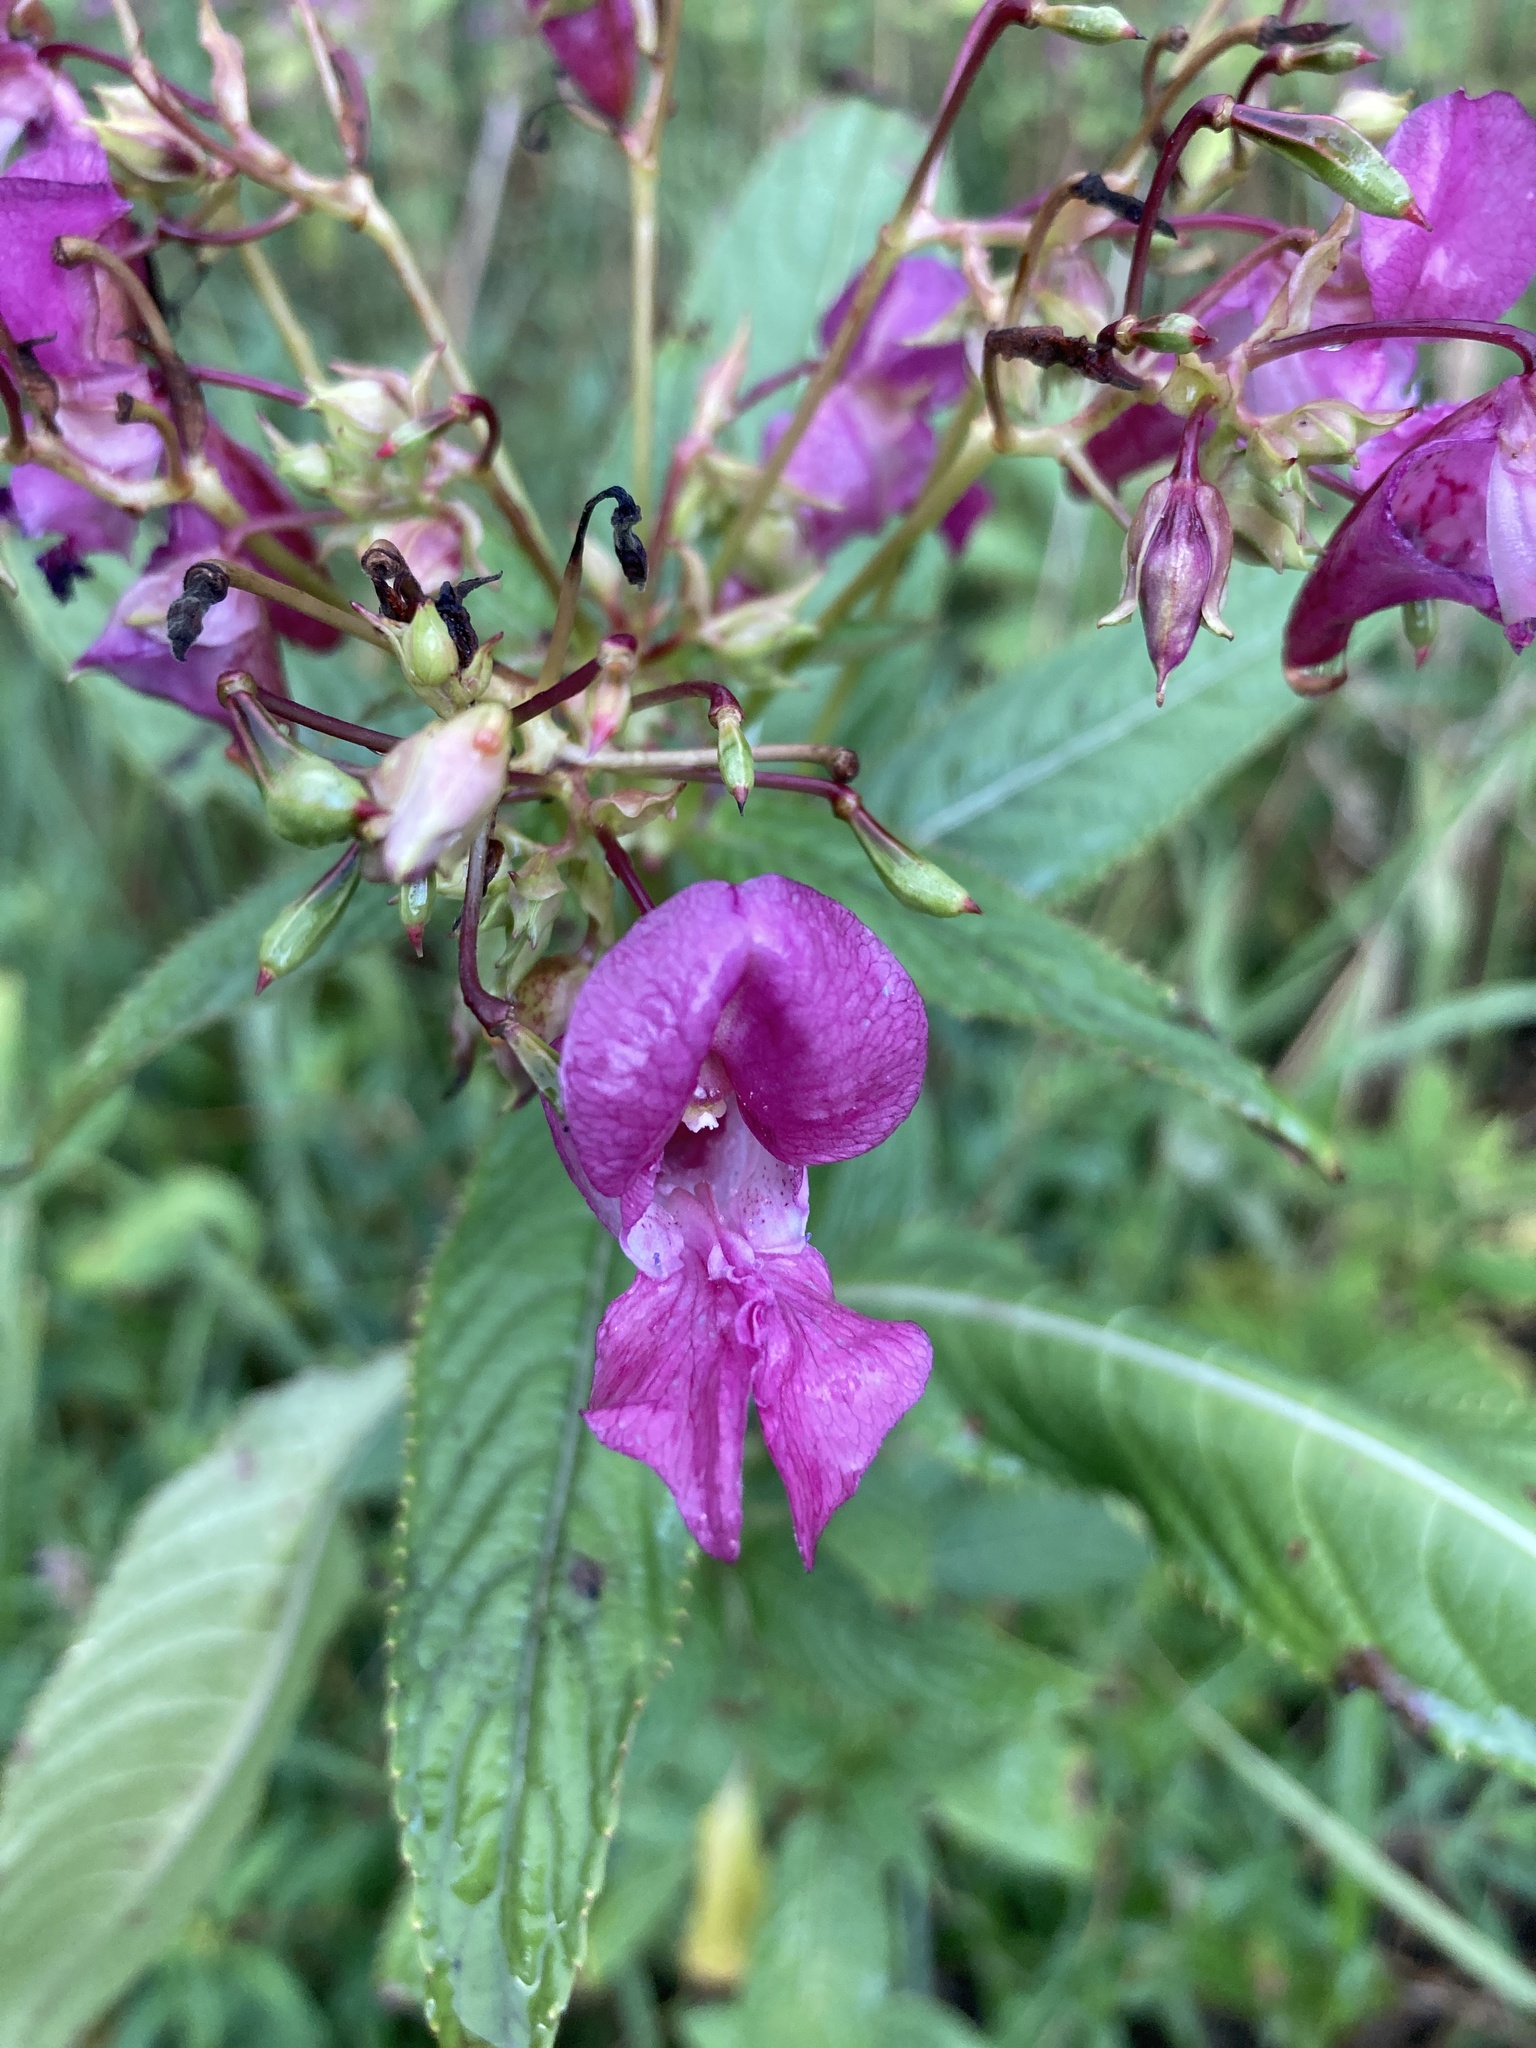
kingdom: Plantae
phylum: Tracheophyta
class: Magnoliopsida
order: Ericales
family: Balsaminaceae
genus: Impatiens
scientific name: Impatiens glandulifera
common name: Himalayan balsam
